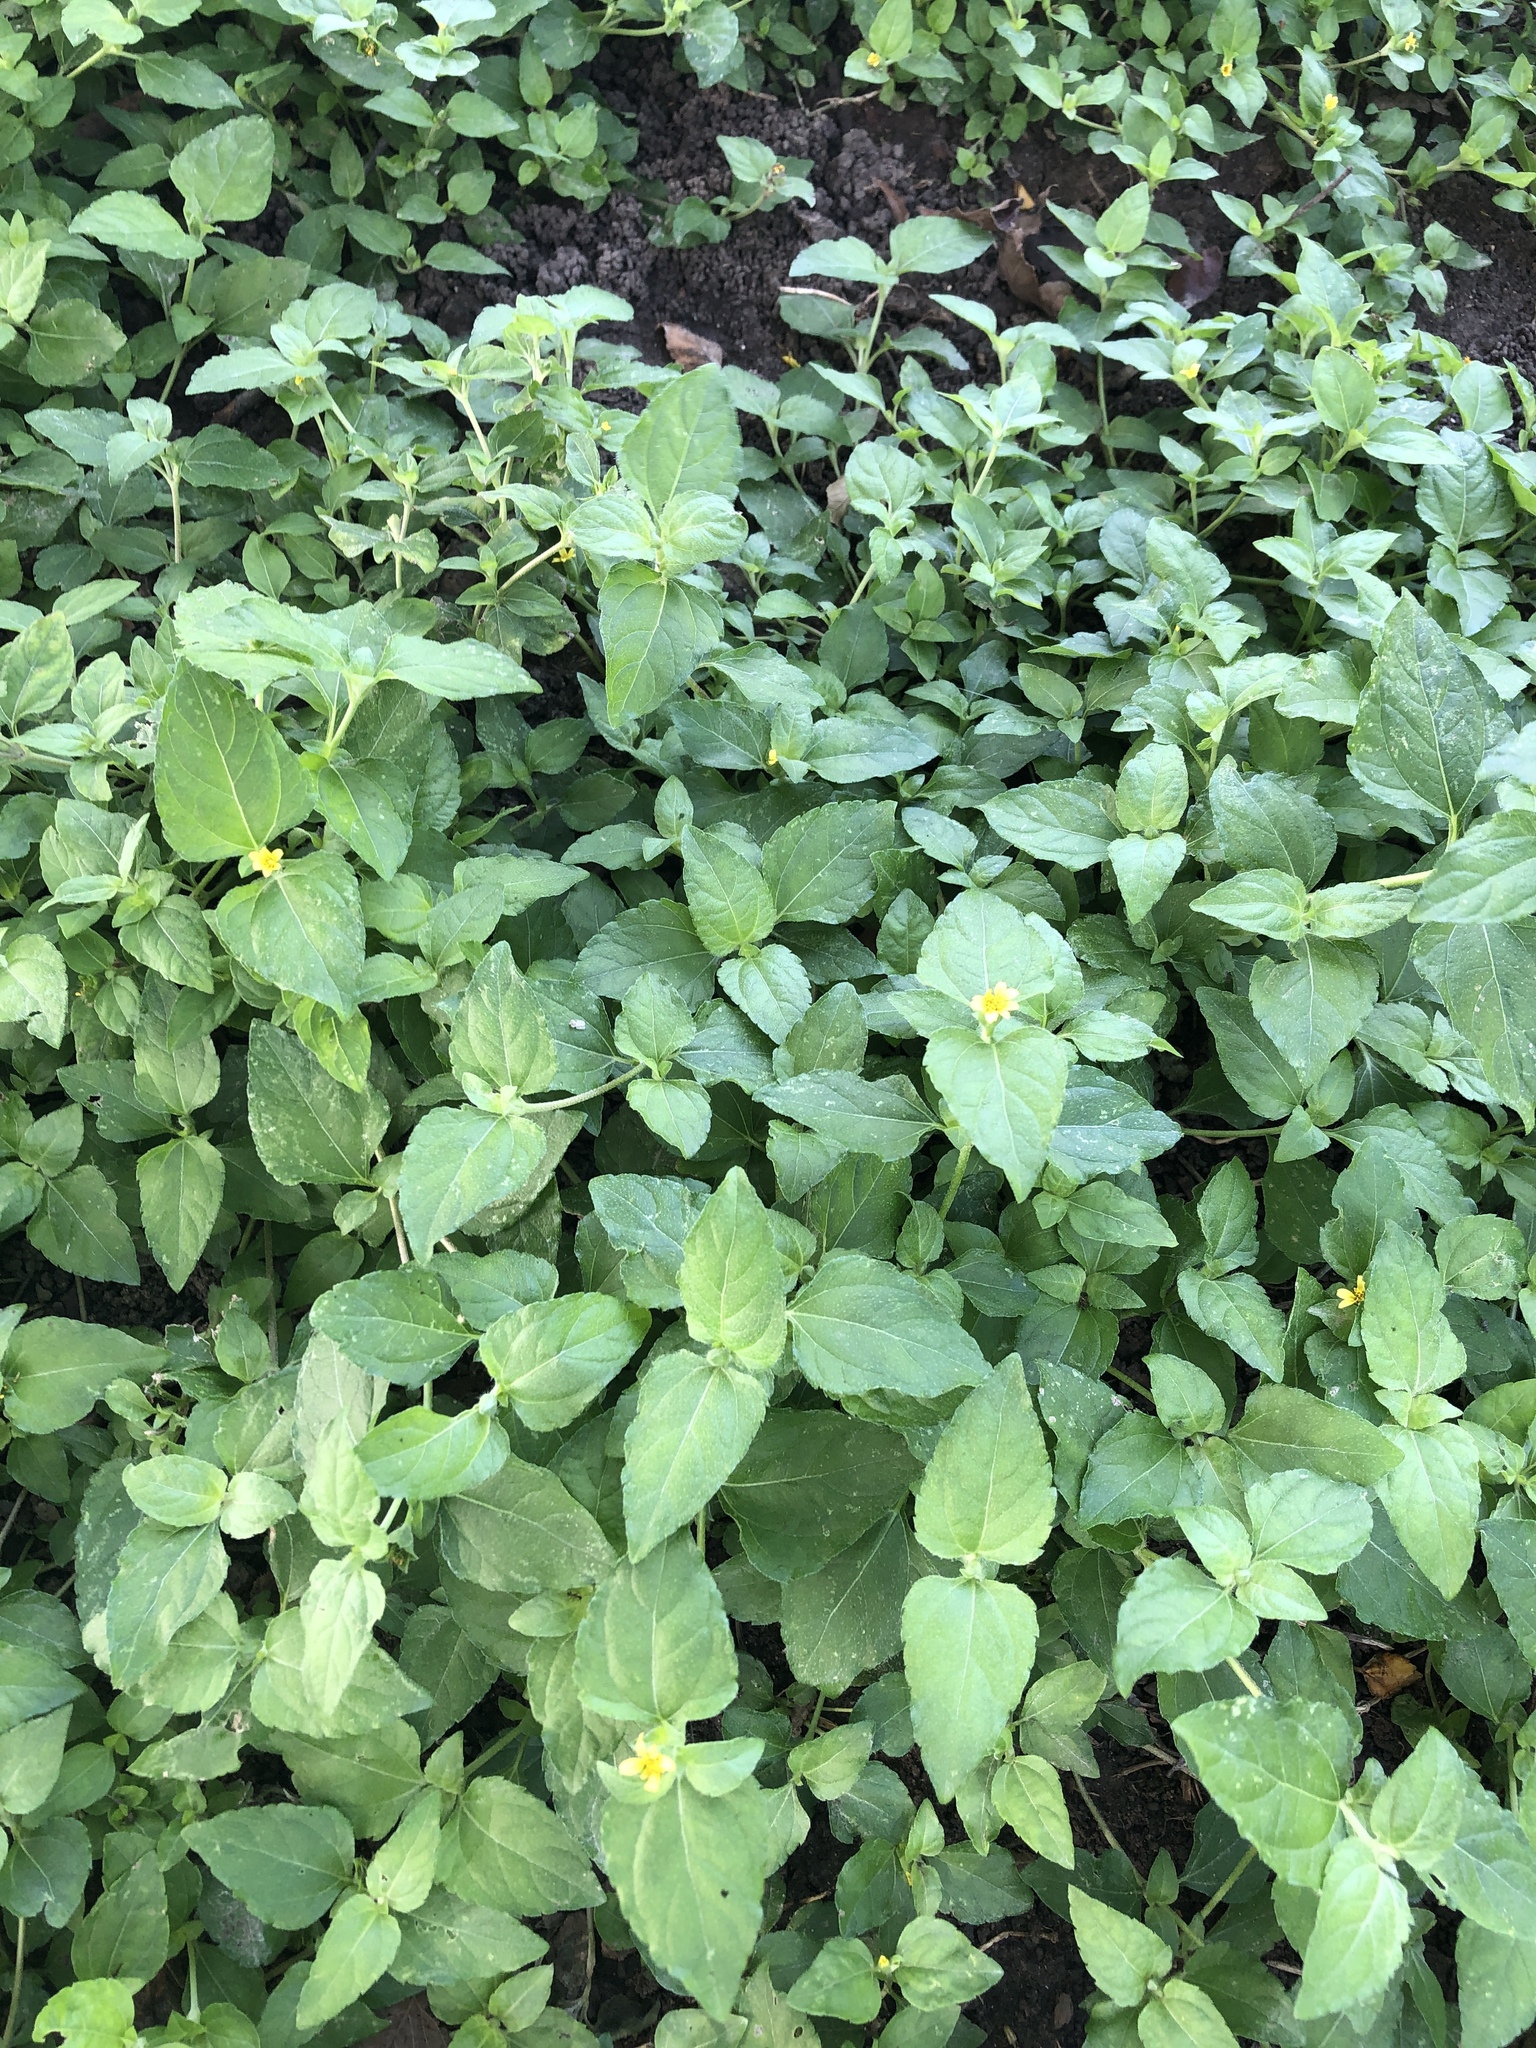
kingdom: Plantae
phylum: Tracheophyta
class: Magnoliopsida
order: Asterales
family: Asteraceae
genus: Calyptocarpus
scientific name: Calyptocarpus vialis
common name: Straggler daisy
